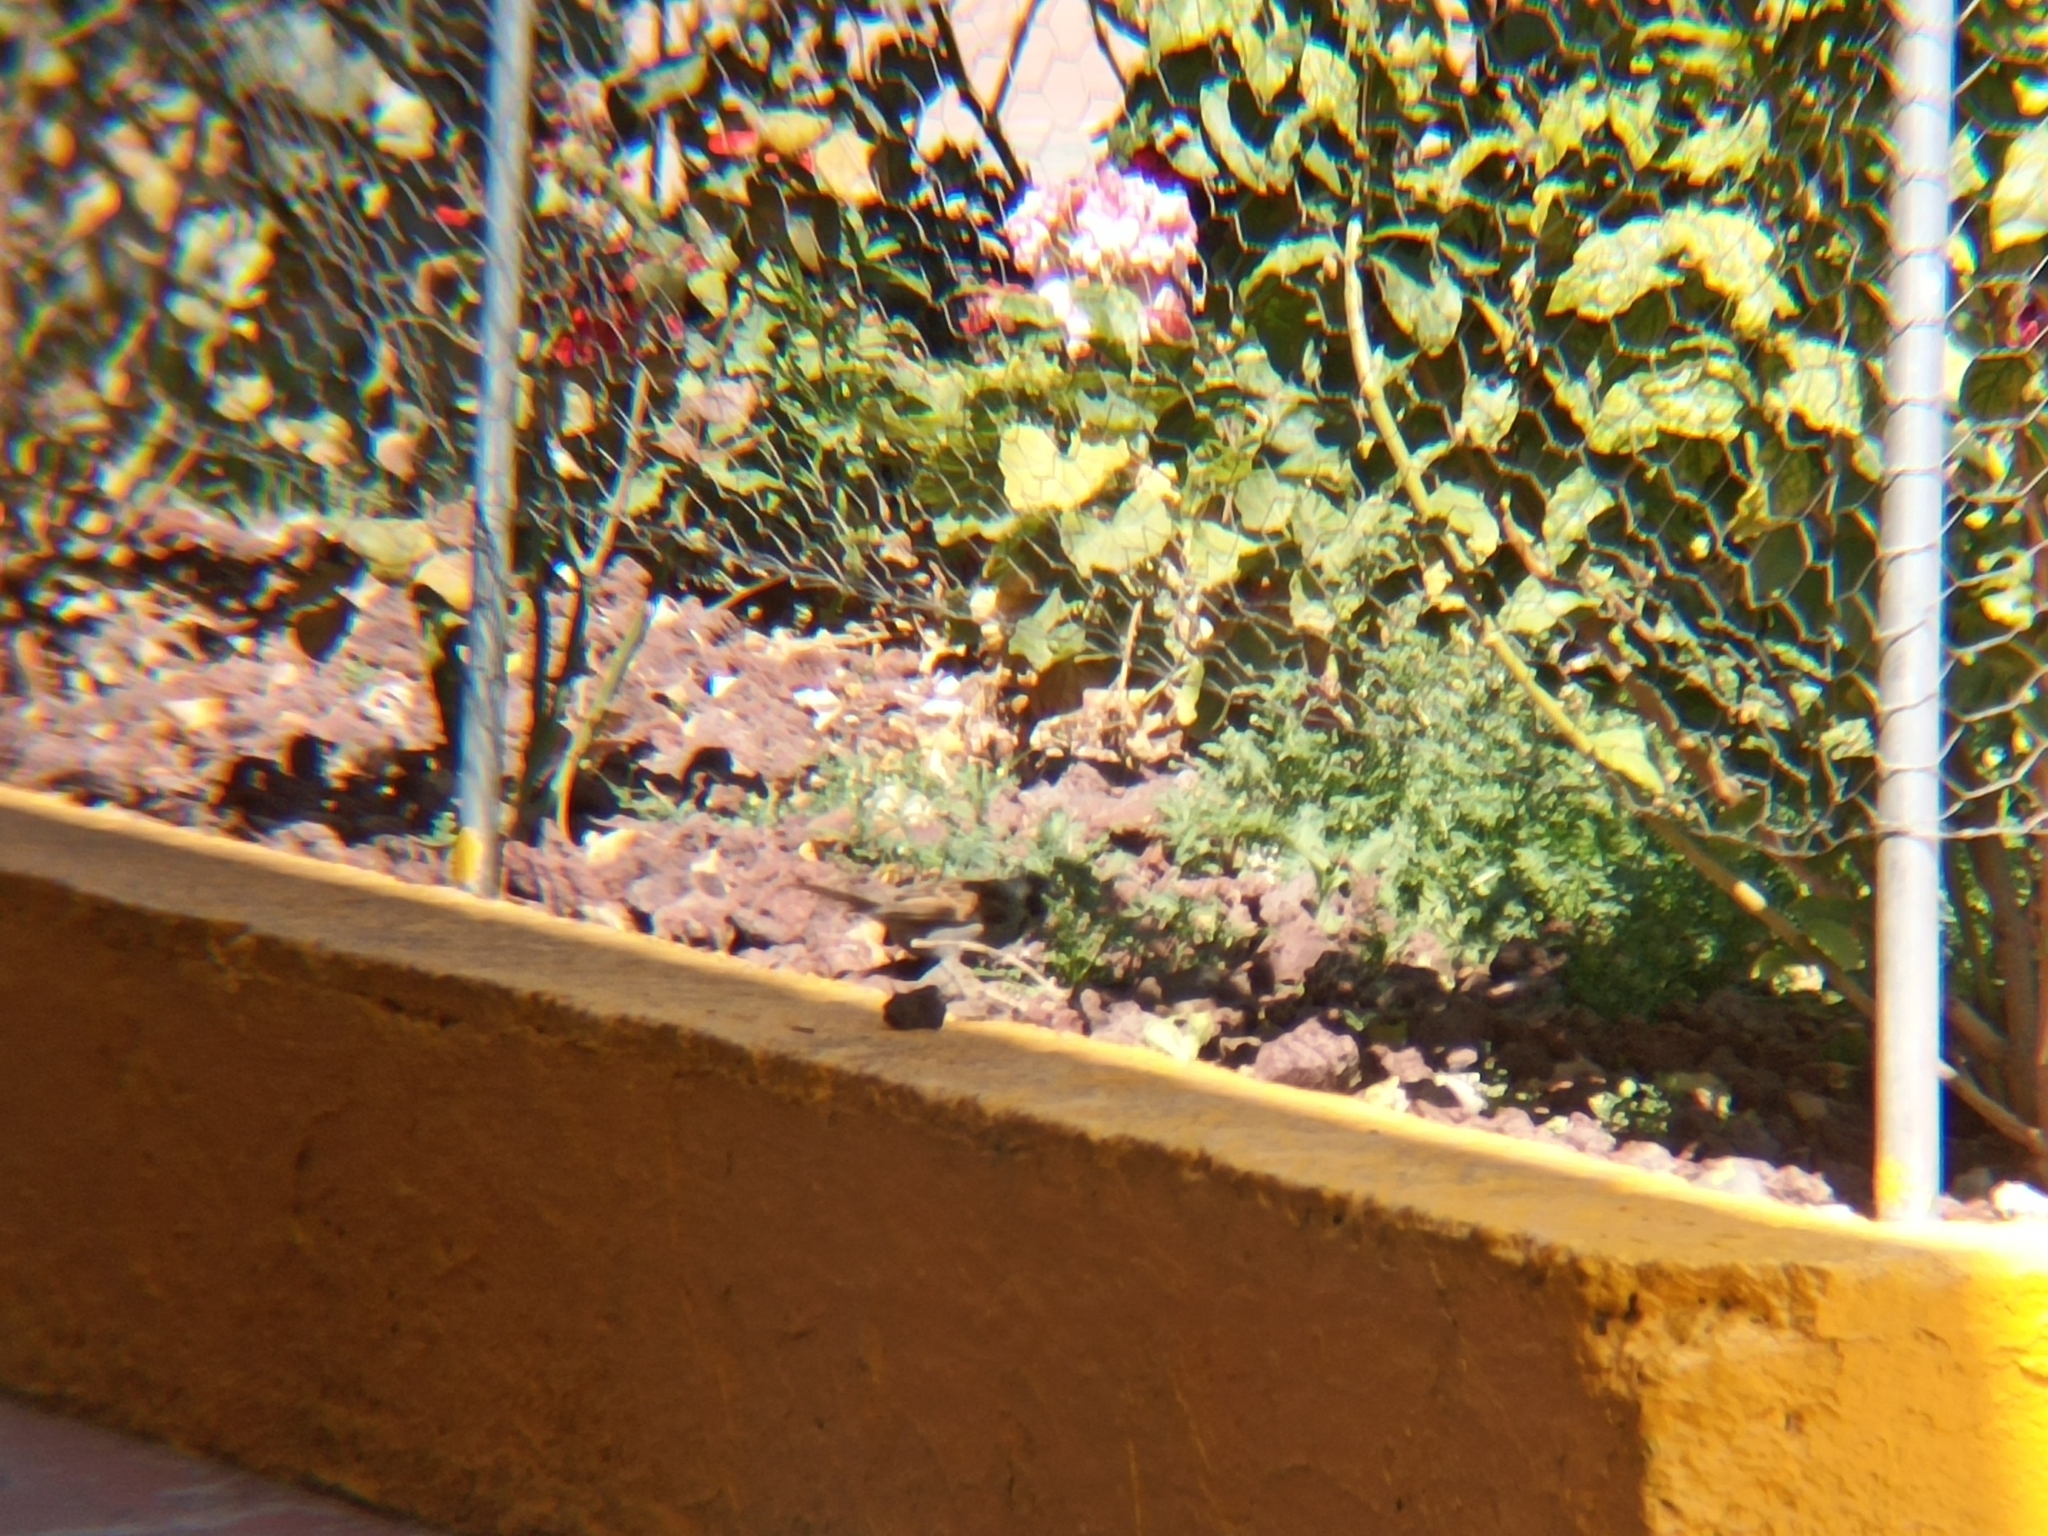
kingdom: Animalia
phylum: Chordata
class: Aves
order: Passeriformes
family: Passeridae
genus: Passer
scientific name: Passer domesticus
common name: House sparrow
